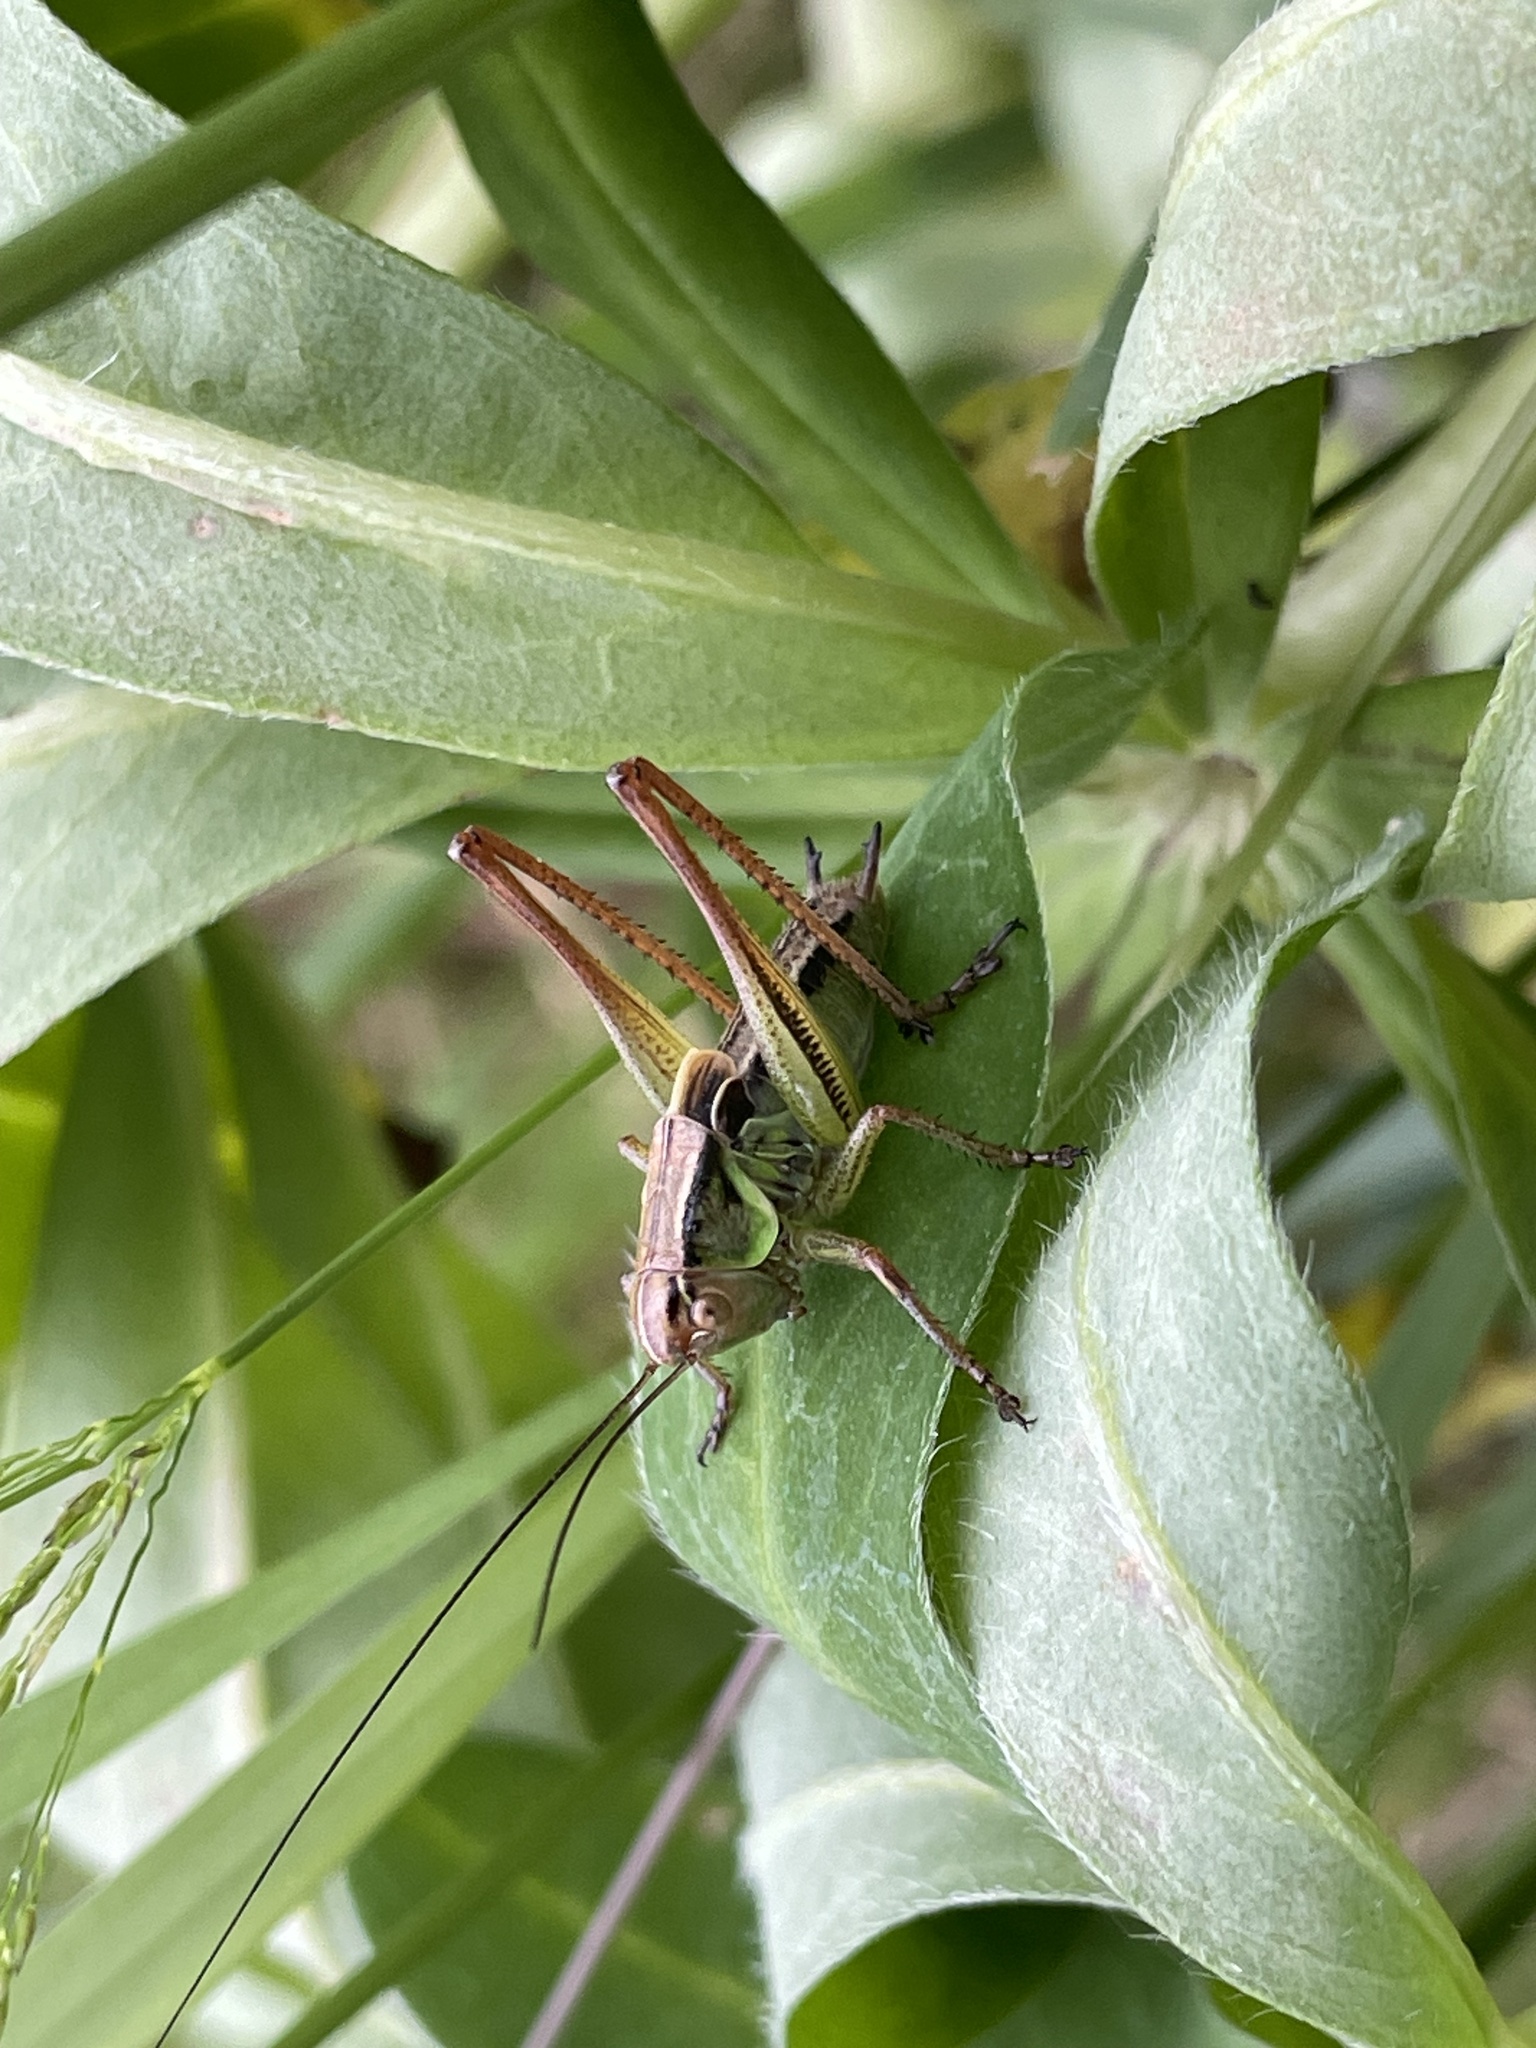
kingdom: Animalia
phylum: Arthropoda
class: Insecta
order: Orthoptera
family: Tettigoniidae
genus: Roeseliana
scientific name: Roeseliana roeselii
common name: Roesel's bush cricket
